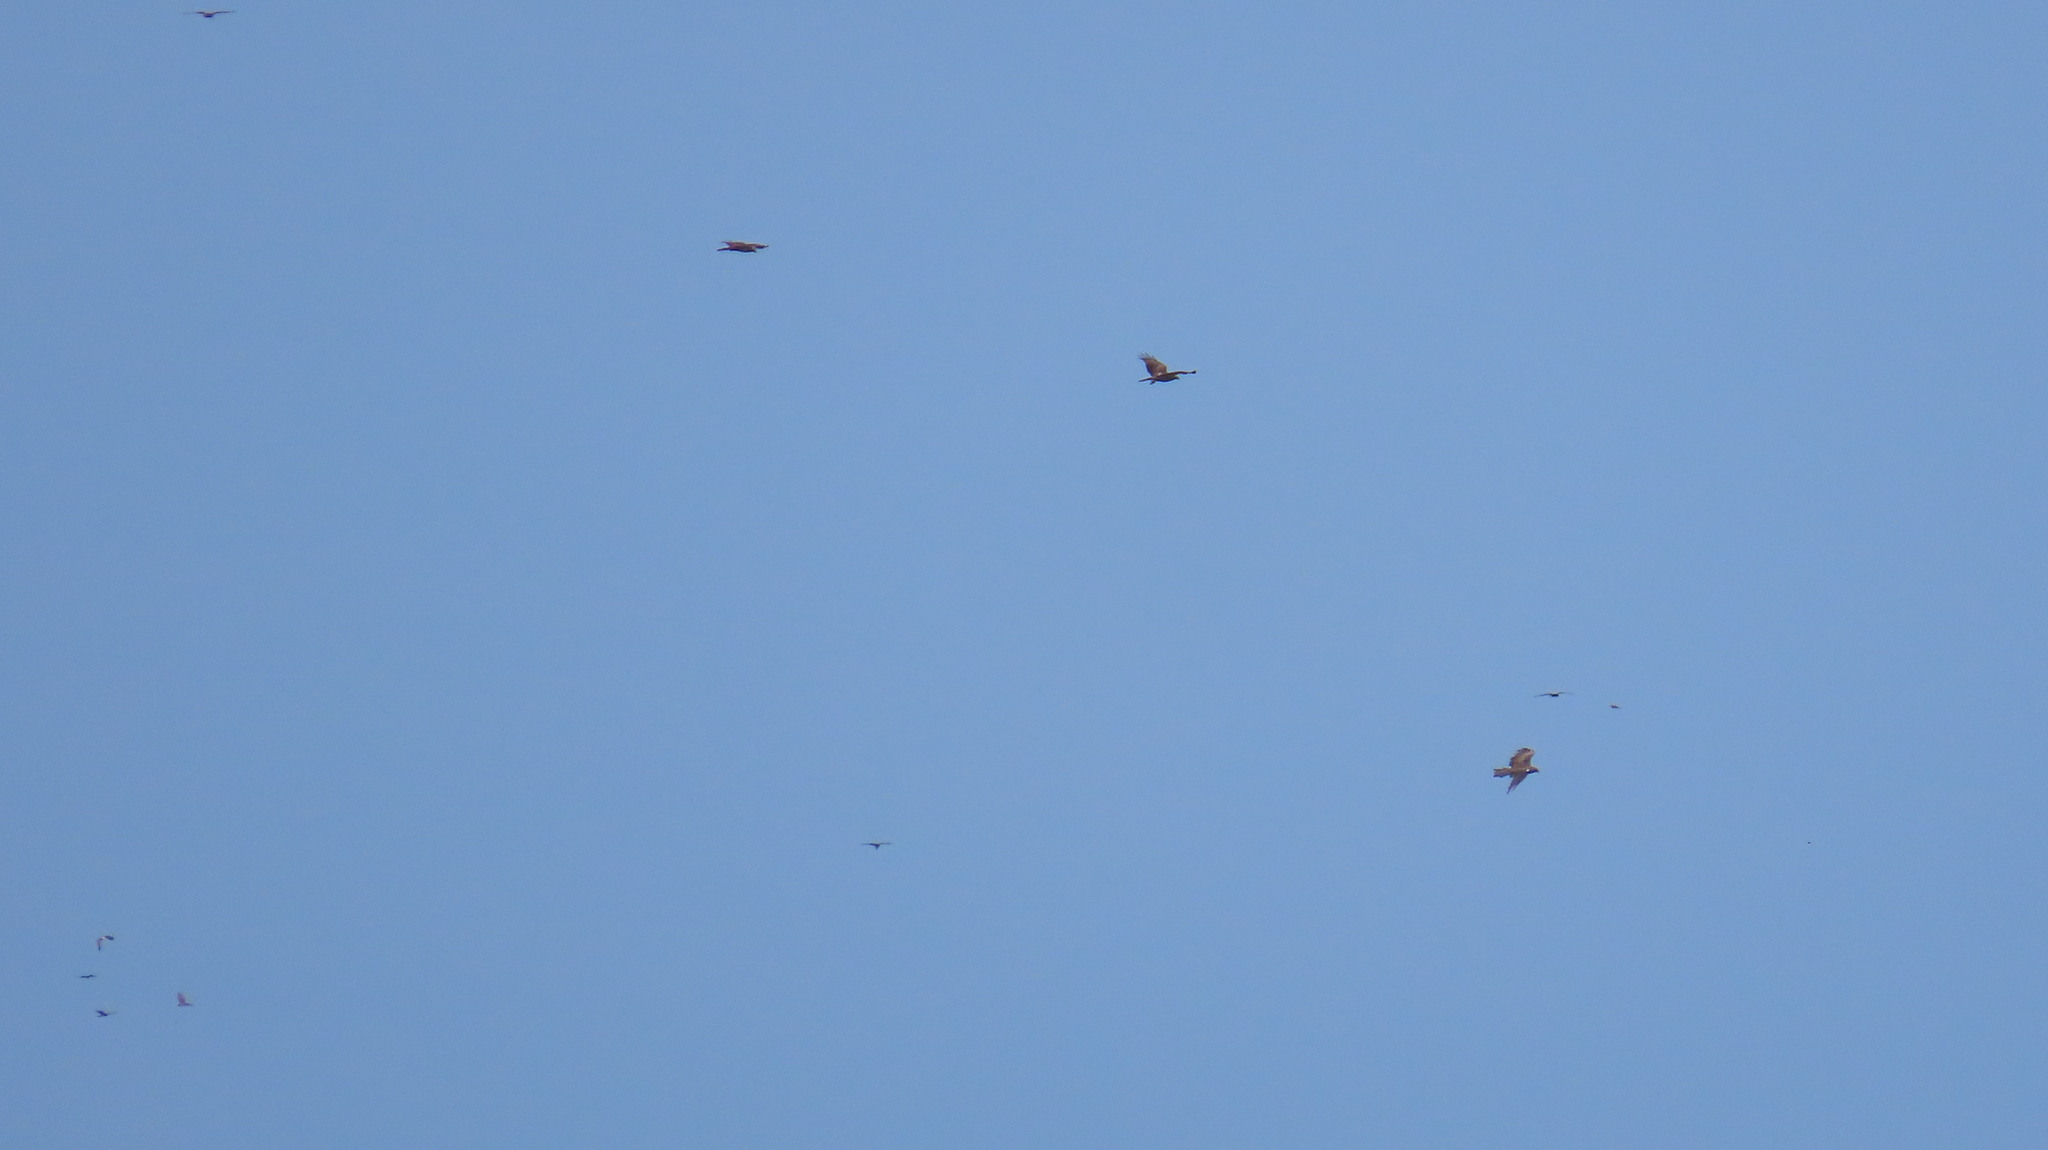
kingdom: Animalia
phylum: Chordata
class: Aves
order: Accipitriformes
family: Accipitridae
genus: Haliastur
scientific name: Haliastur indus
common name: Brahminy kite
